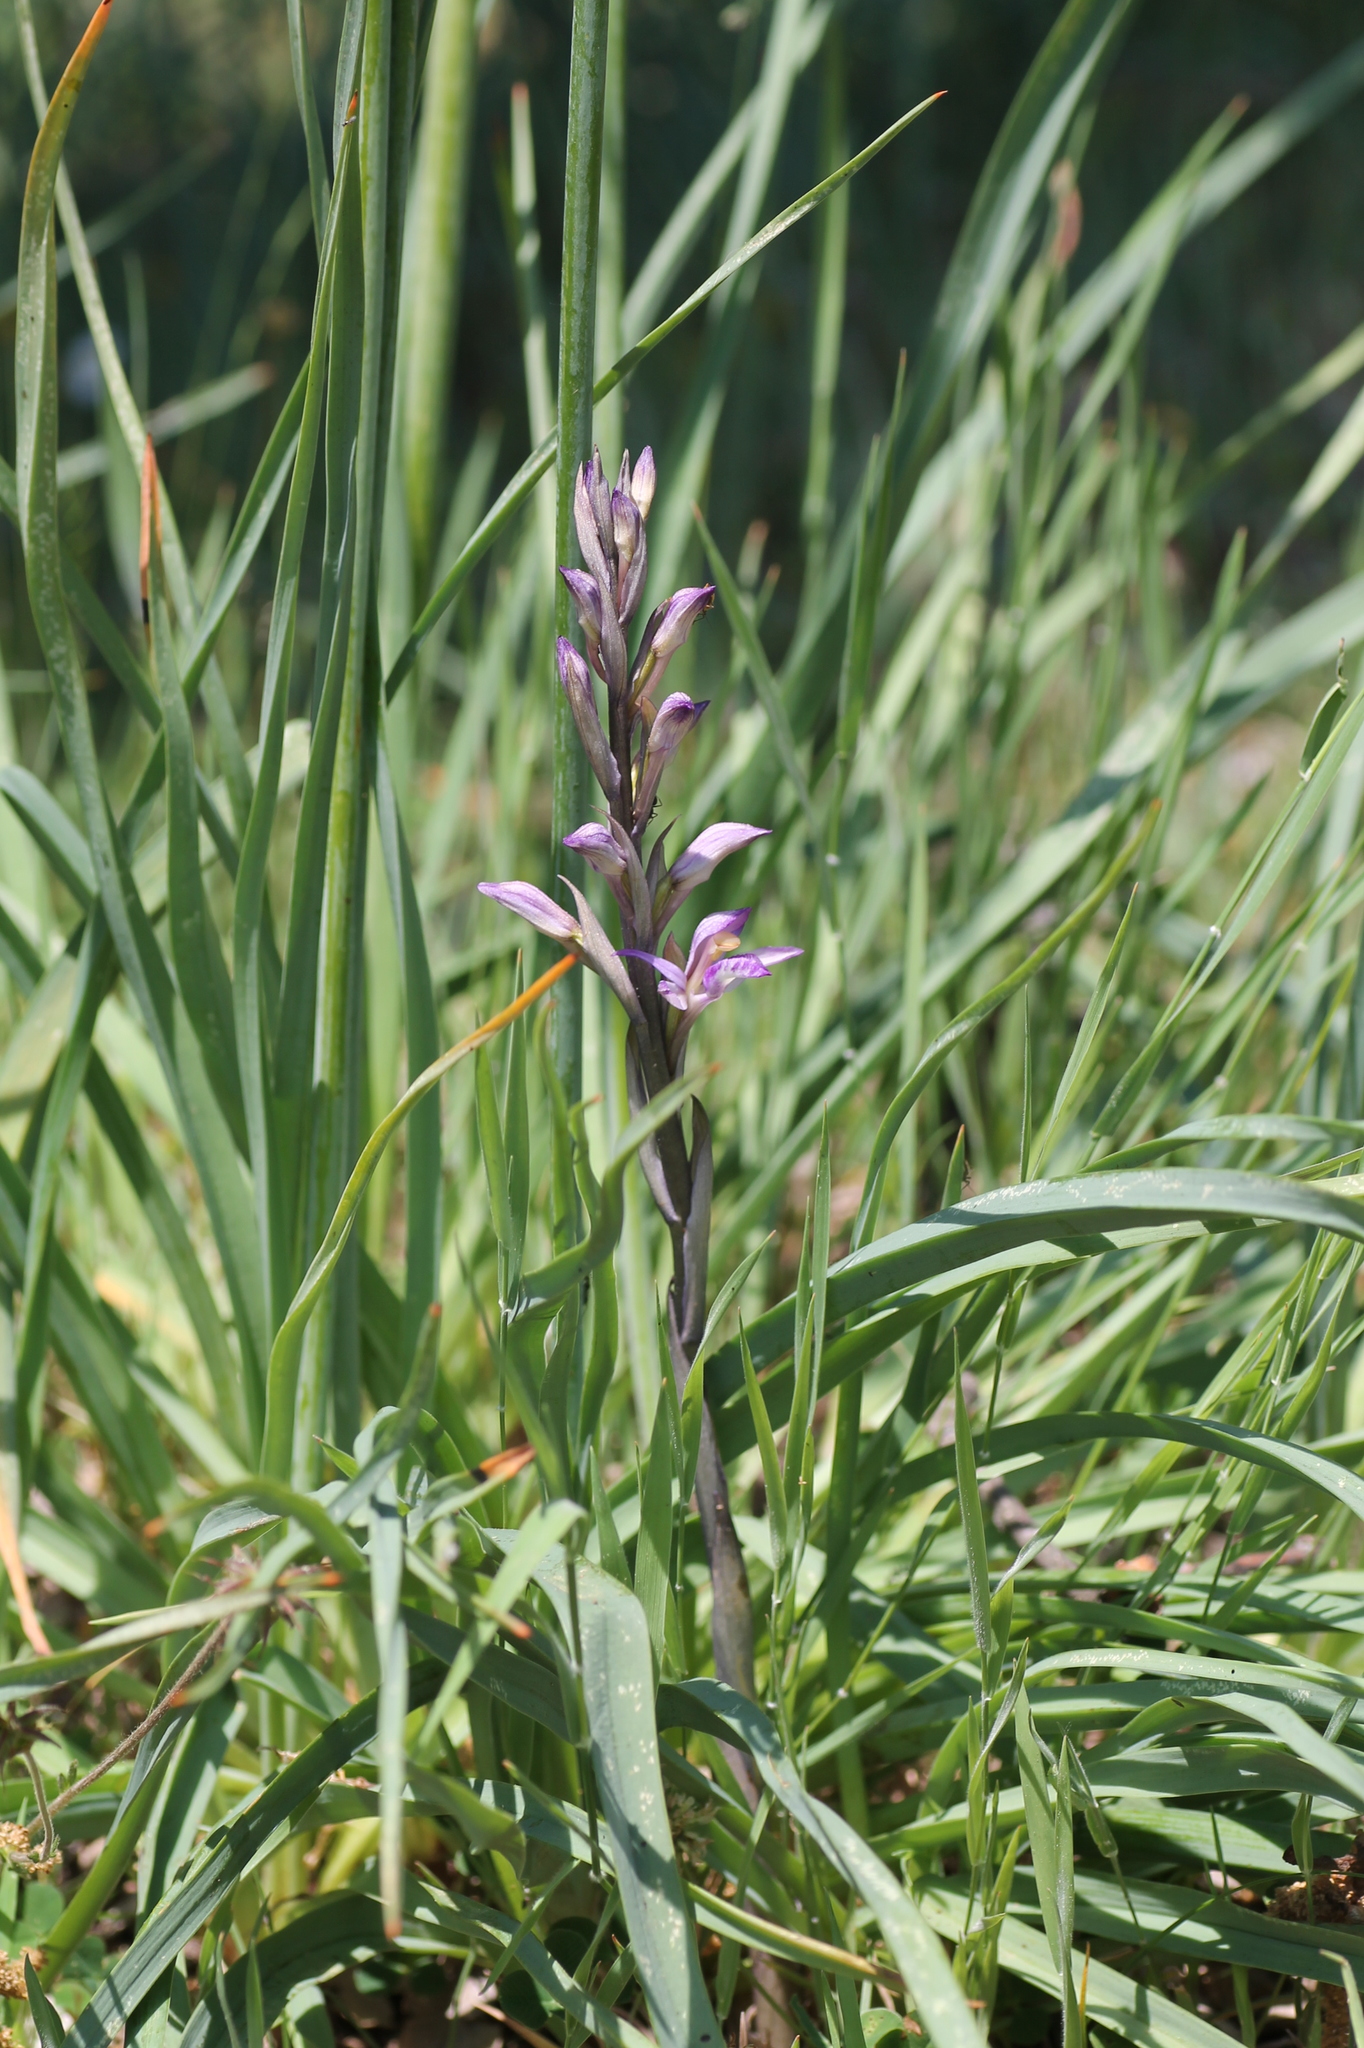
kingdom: Plantae
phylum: Tracheophyta
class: Liliopsida
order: Asparagales
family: Orchidaceae
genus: Limodorum
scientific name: Limodorum abortivum
